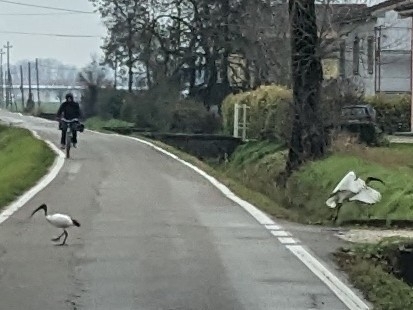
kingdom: Animalia
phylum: Chordata
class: Aves
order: Pelecaniformes
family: Threskiornithidae
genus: Threskiornis
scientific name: Threskiornis aethiopicus
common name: Sacred ibis
